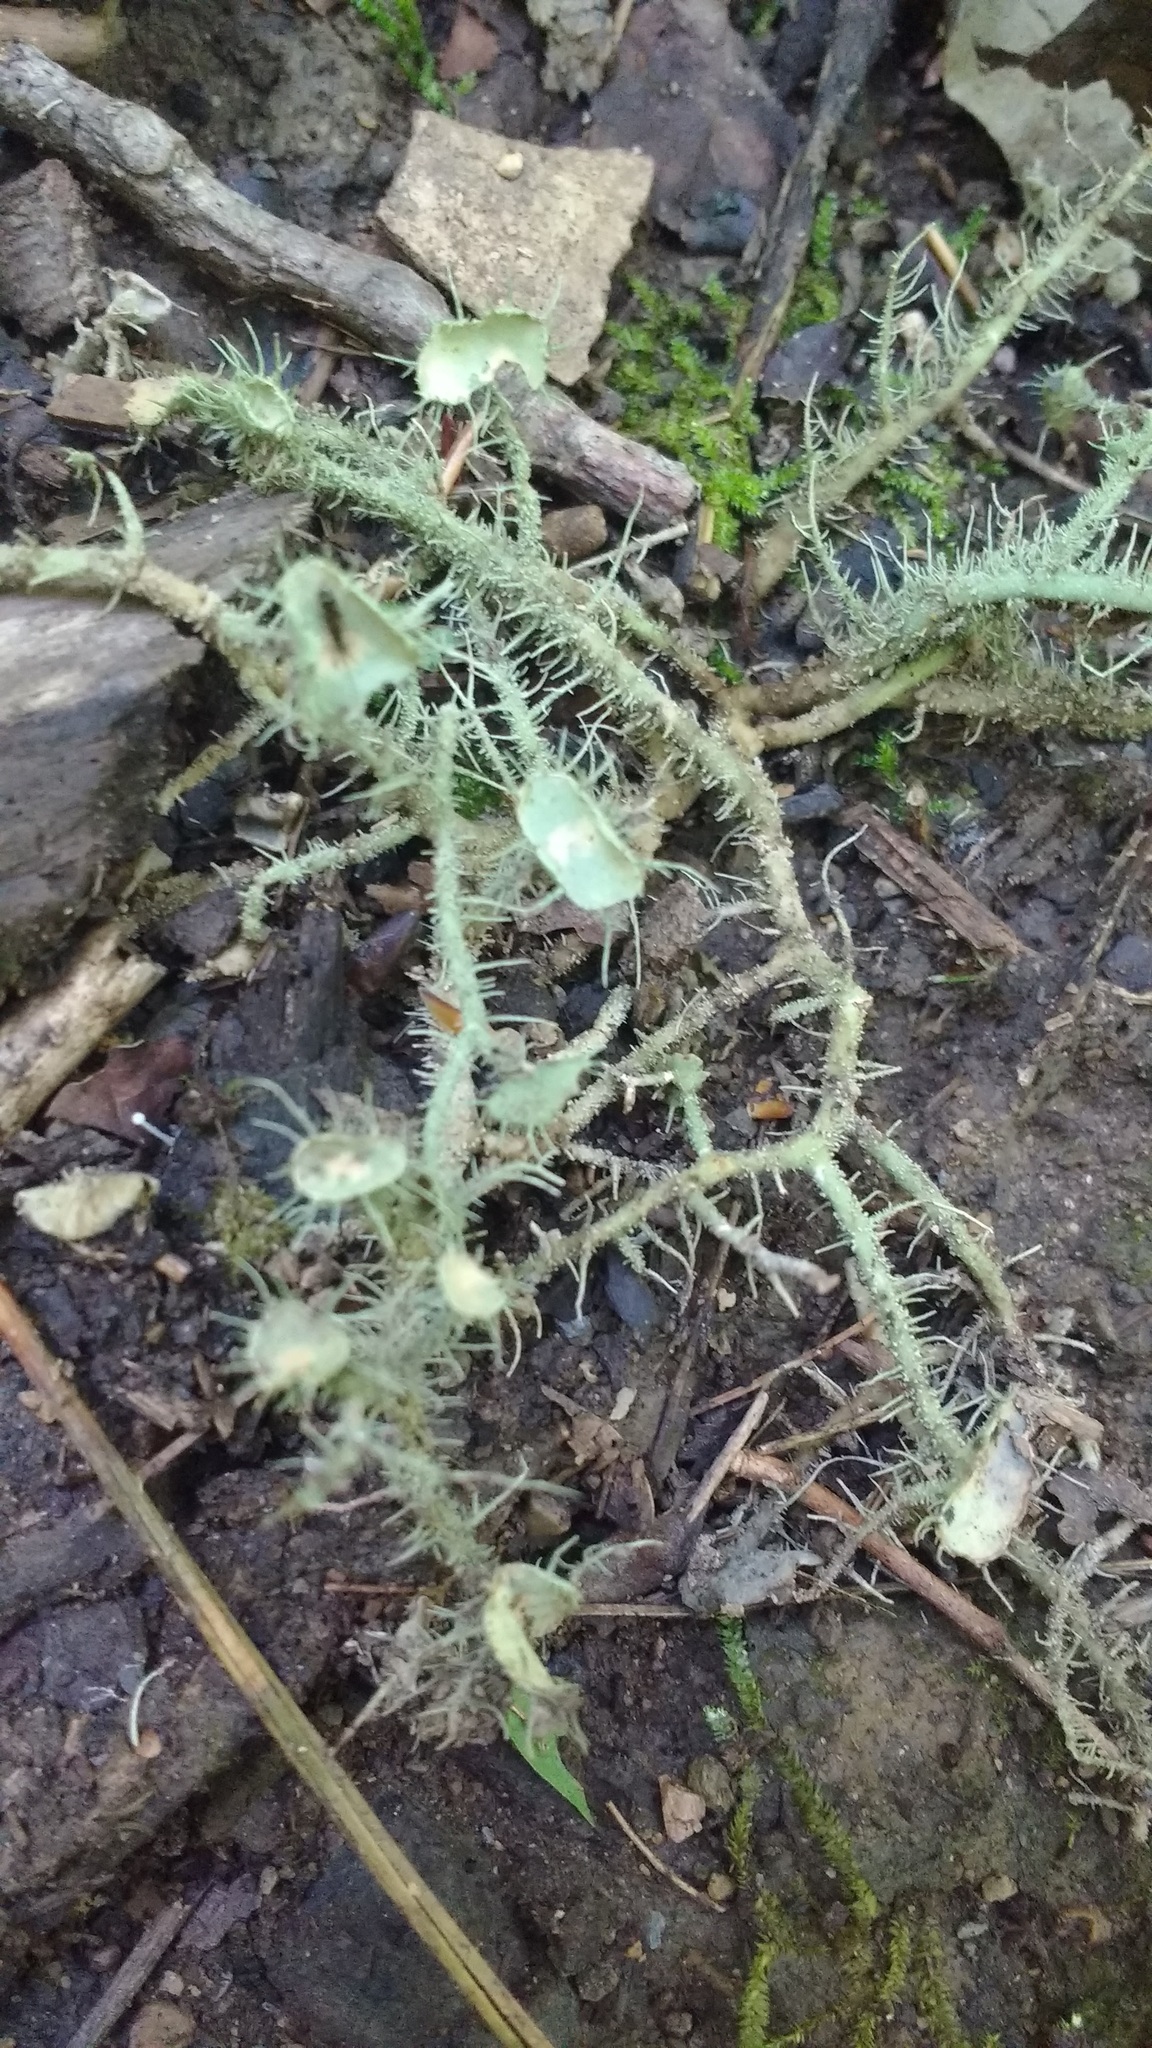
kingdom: Fungi
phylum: Ascomycota
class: Lecanoromycetes
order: Lecanorales
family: Parmeliaceae
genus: Usnea
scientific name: Usnea strigosa
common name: Bushy beard lichen
